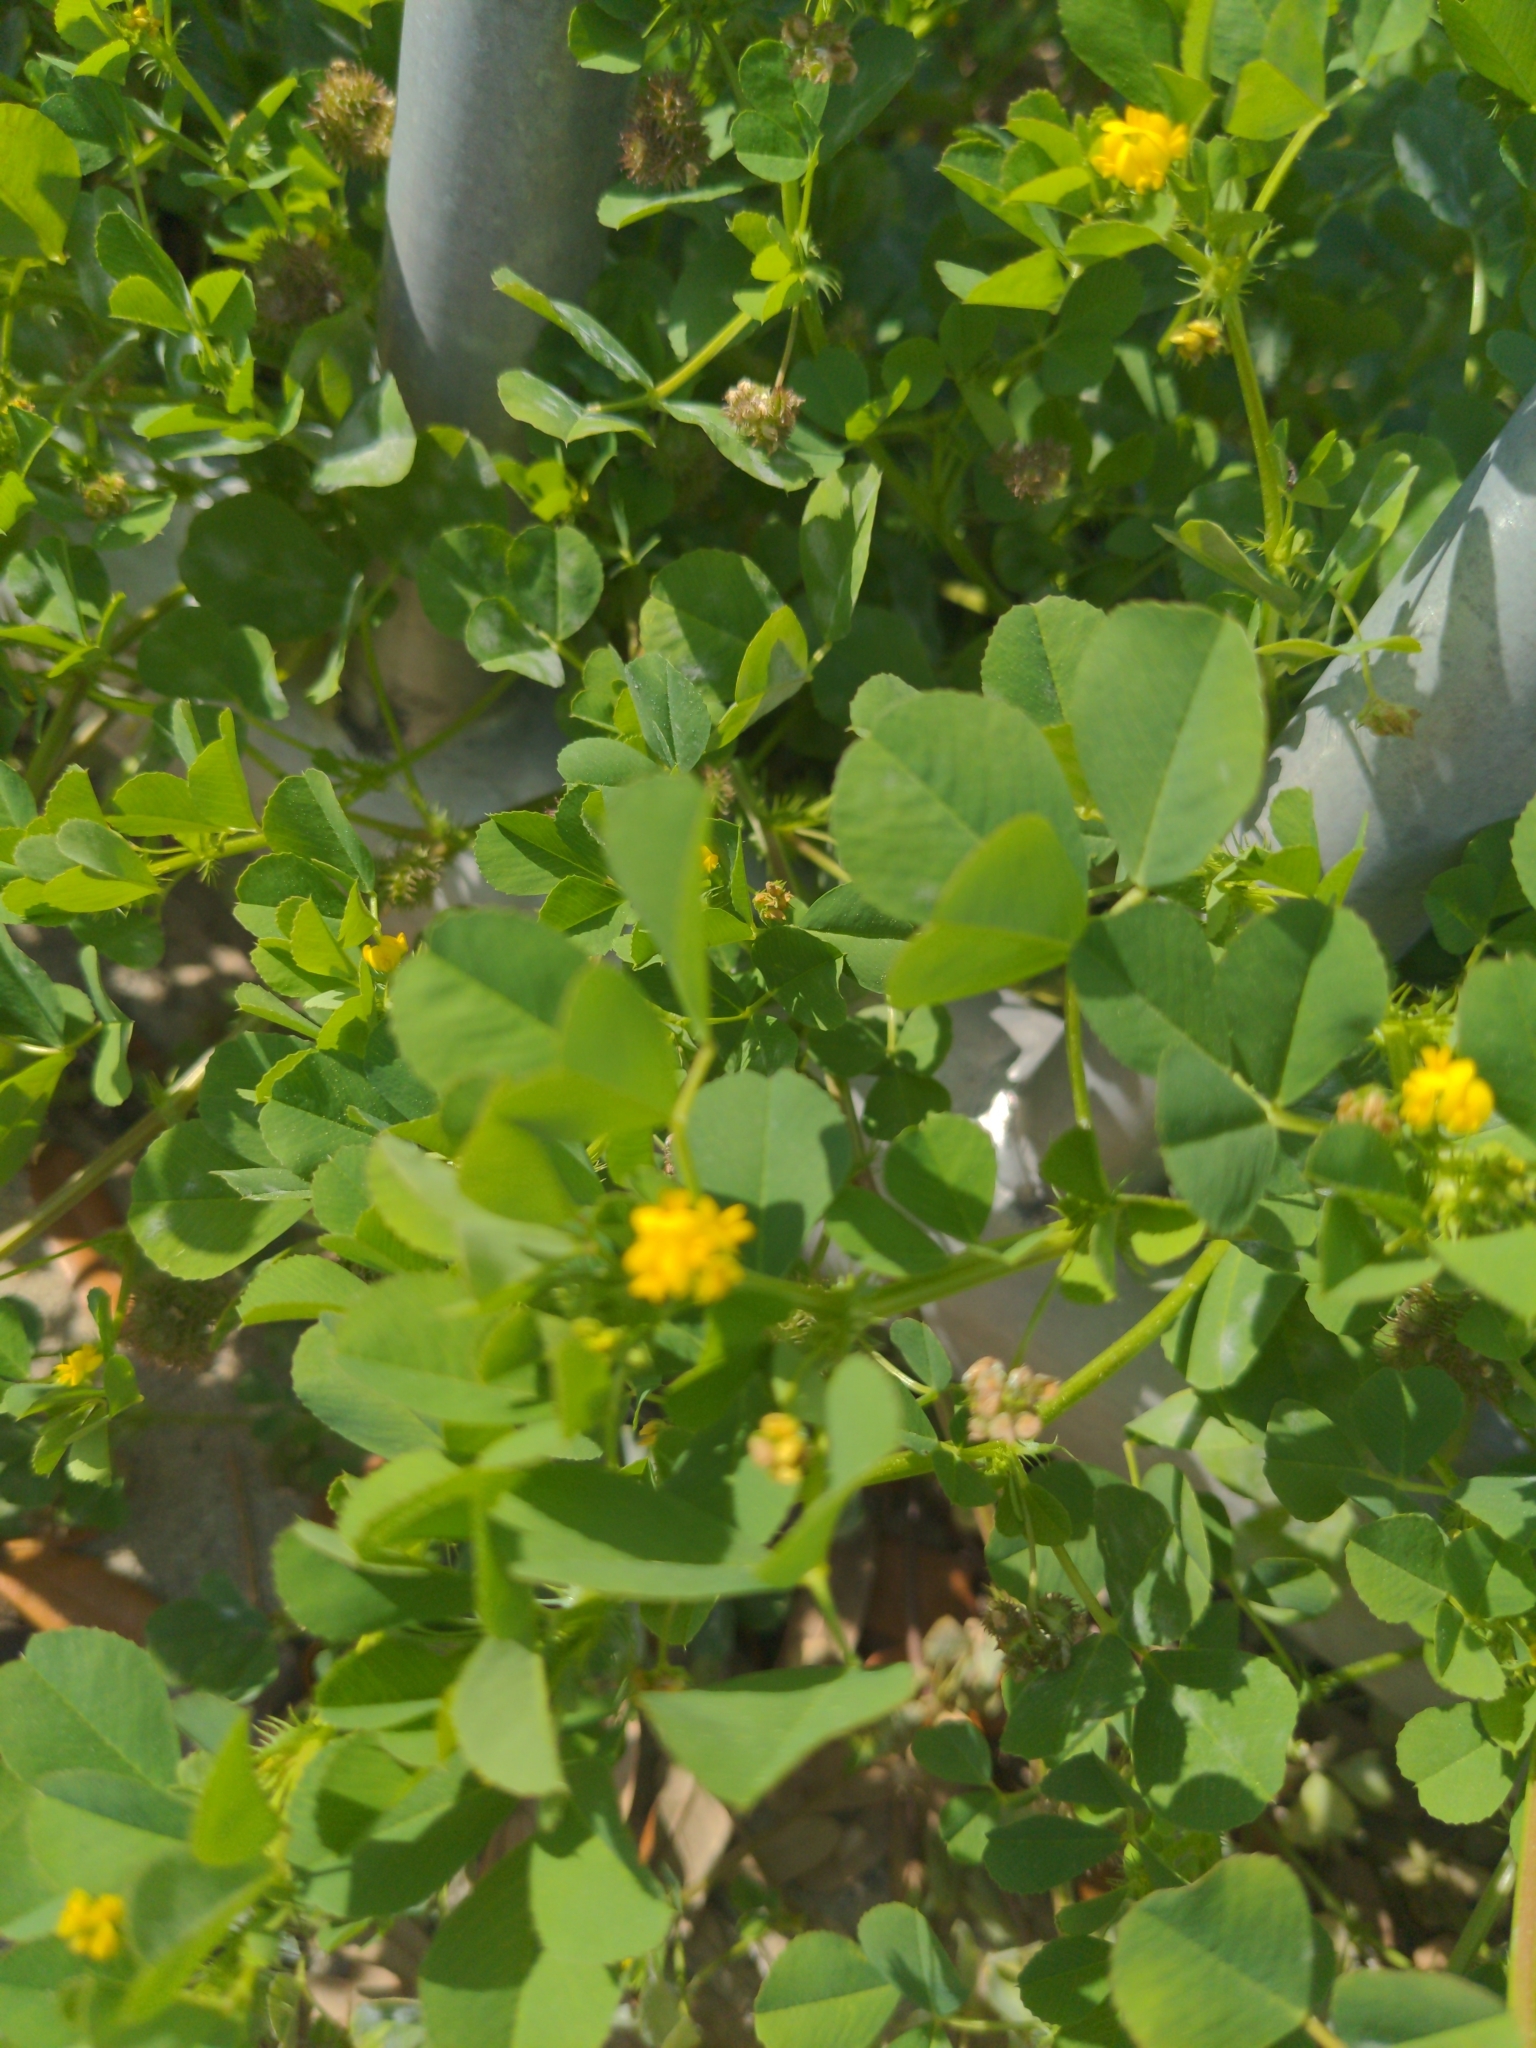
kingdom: Plantae
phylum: Tracheophyta
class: Magnoliopsida
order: Fabales
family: Fabaceae
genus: Medicago
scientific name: Medicago polymorpha
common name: Burclover
